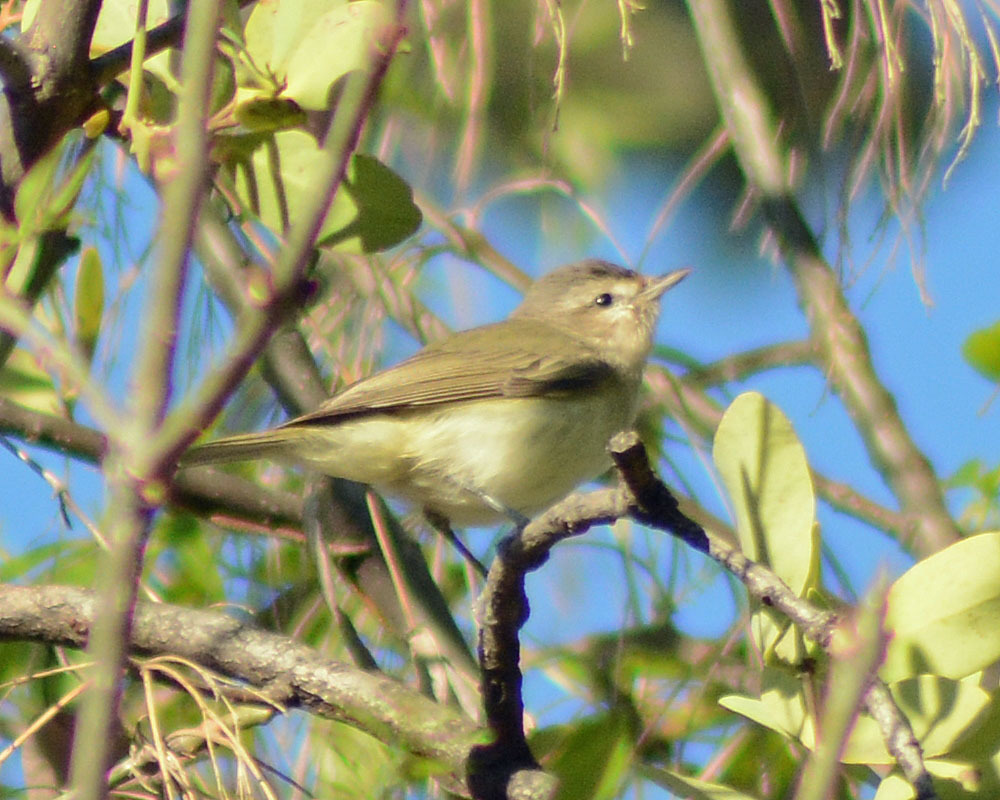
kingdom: Animalia
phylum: Chordata
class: Aves
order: Passeriformes
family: Vireonidae
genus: Vireo
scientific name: Vireo gilvus
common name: Warbling vireo
